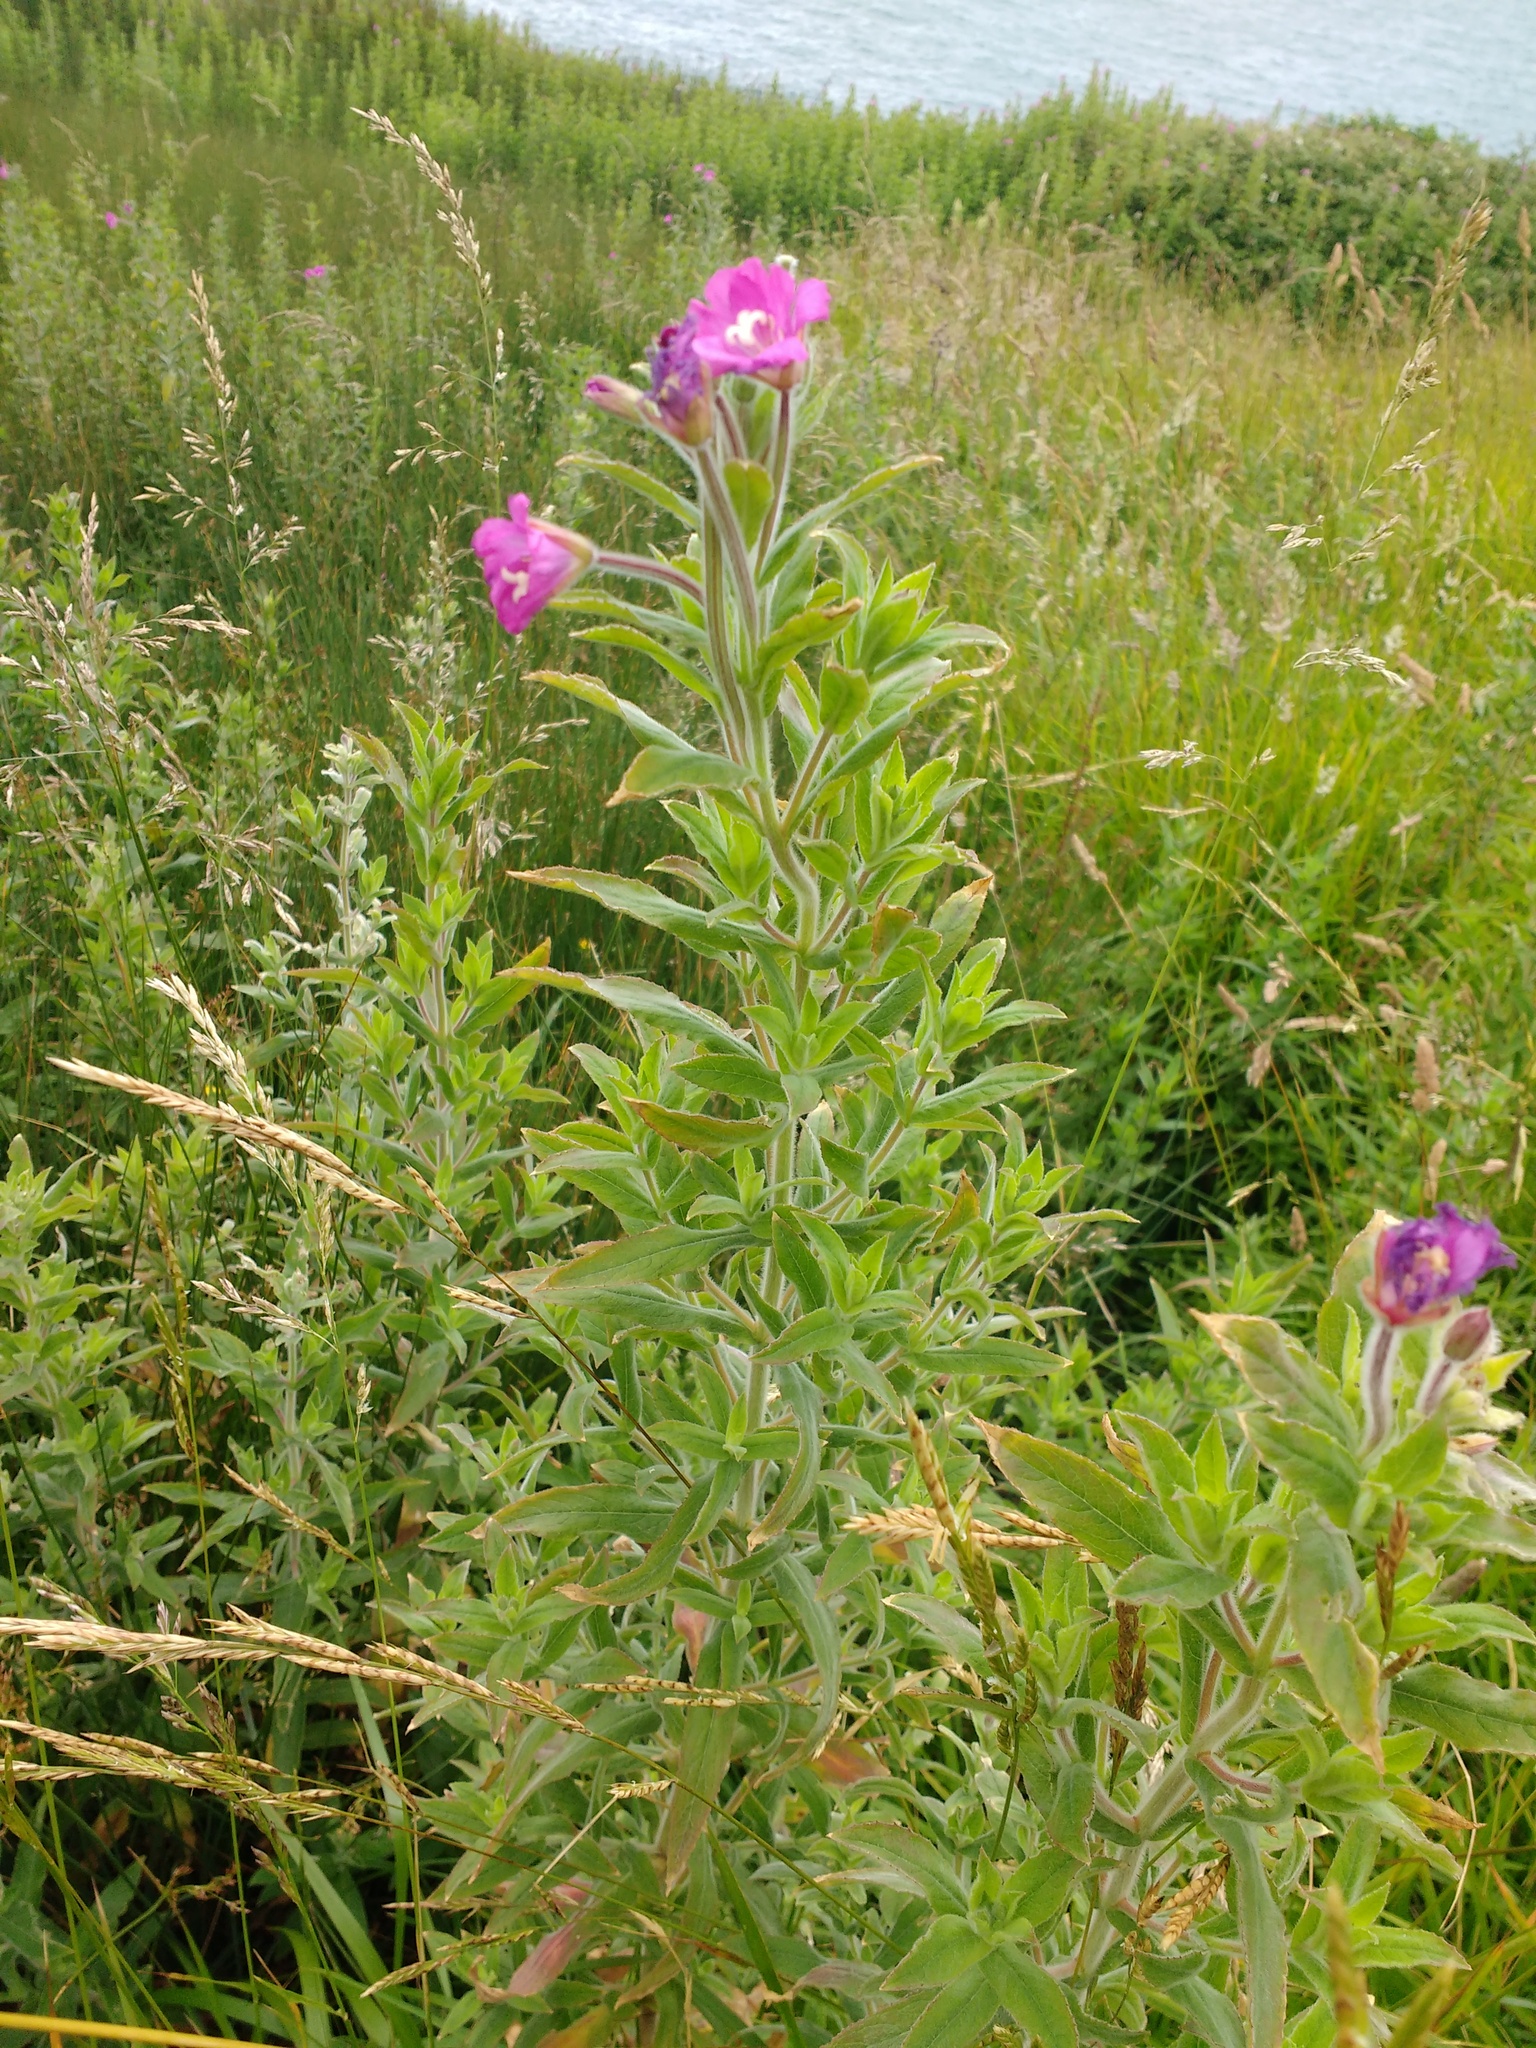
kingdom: Plantae
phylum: Tracheophyta
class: Magnoliopsida
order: Myrtales
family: Onagraceae
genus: Epilobium
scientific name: Epilobium hirsutum
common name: Great willowherb
